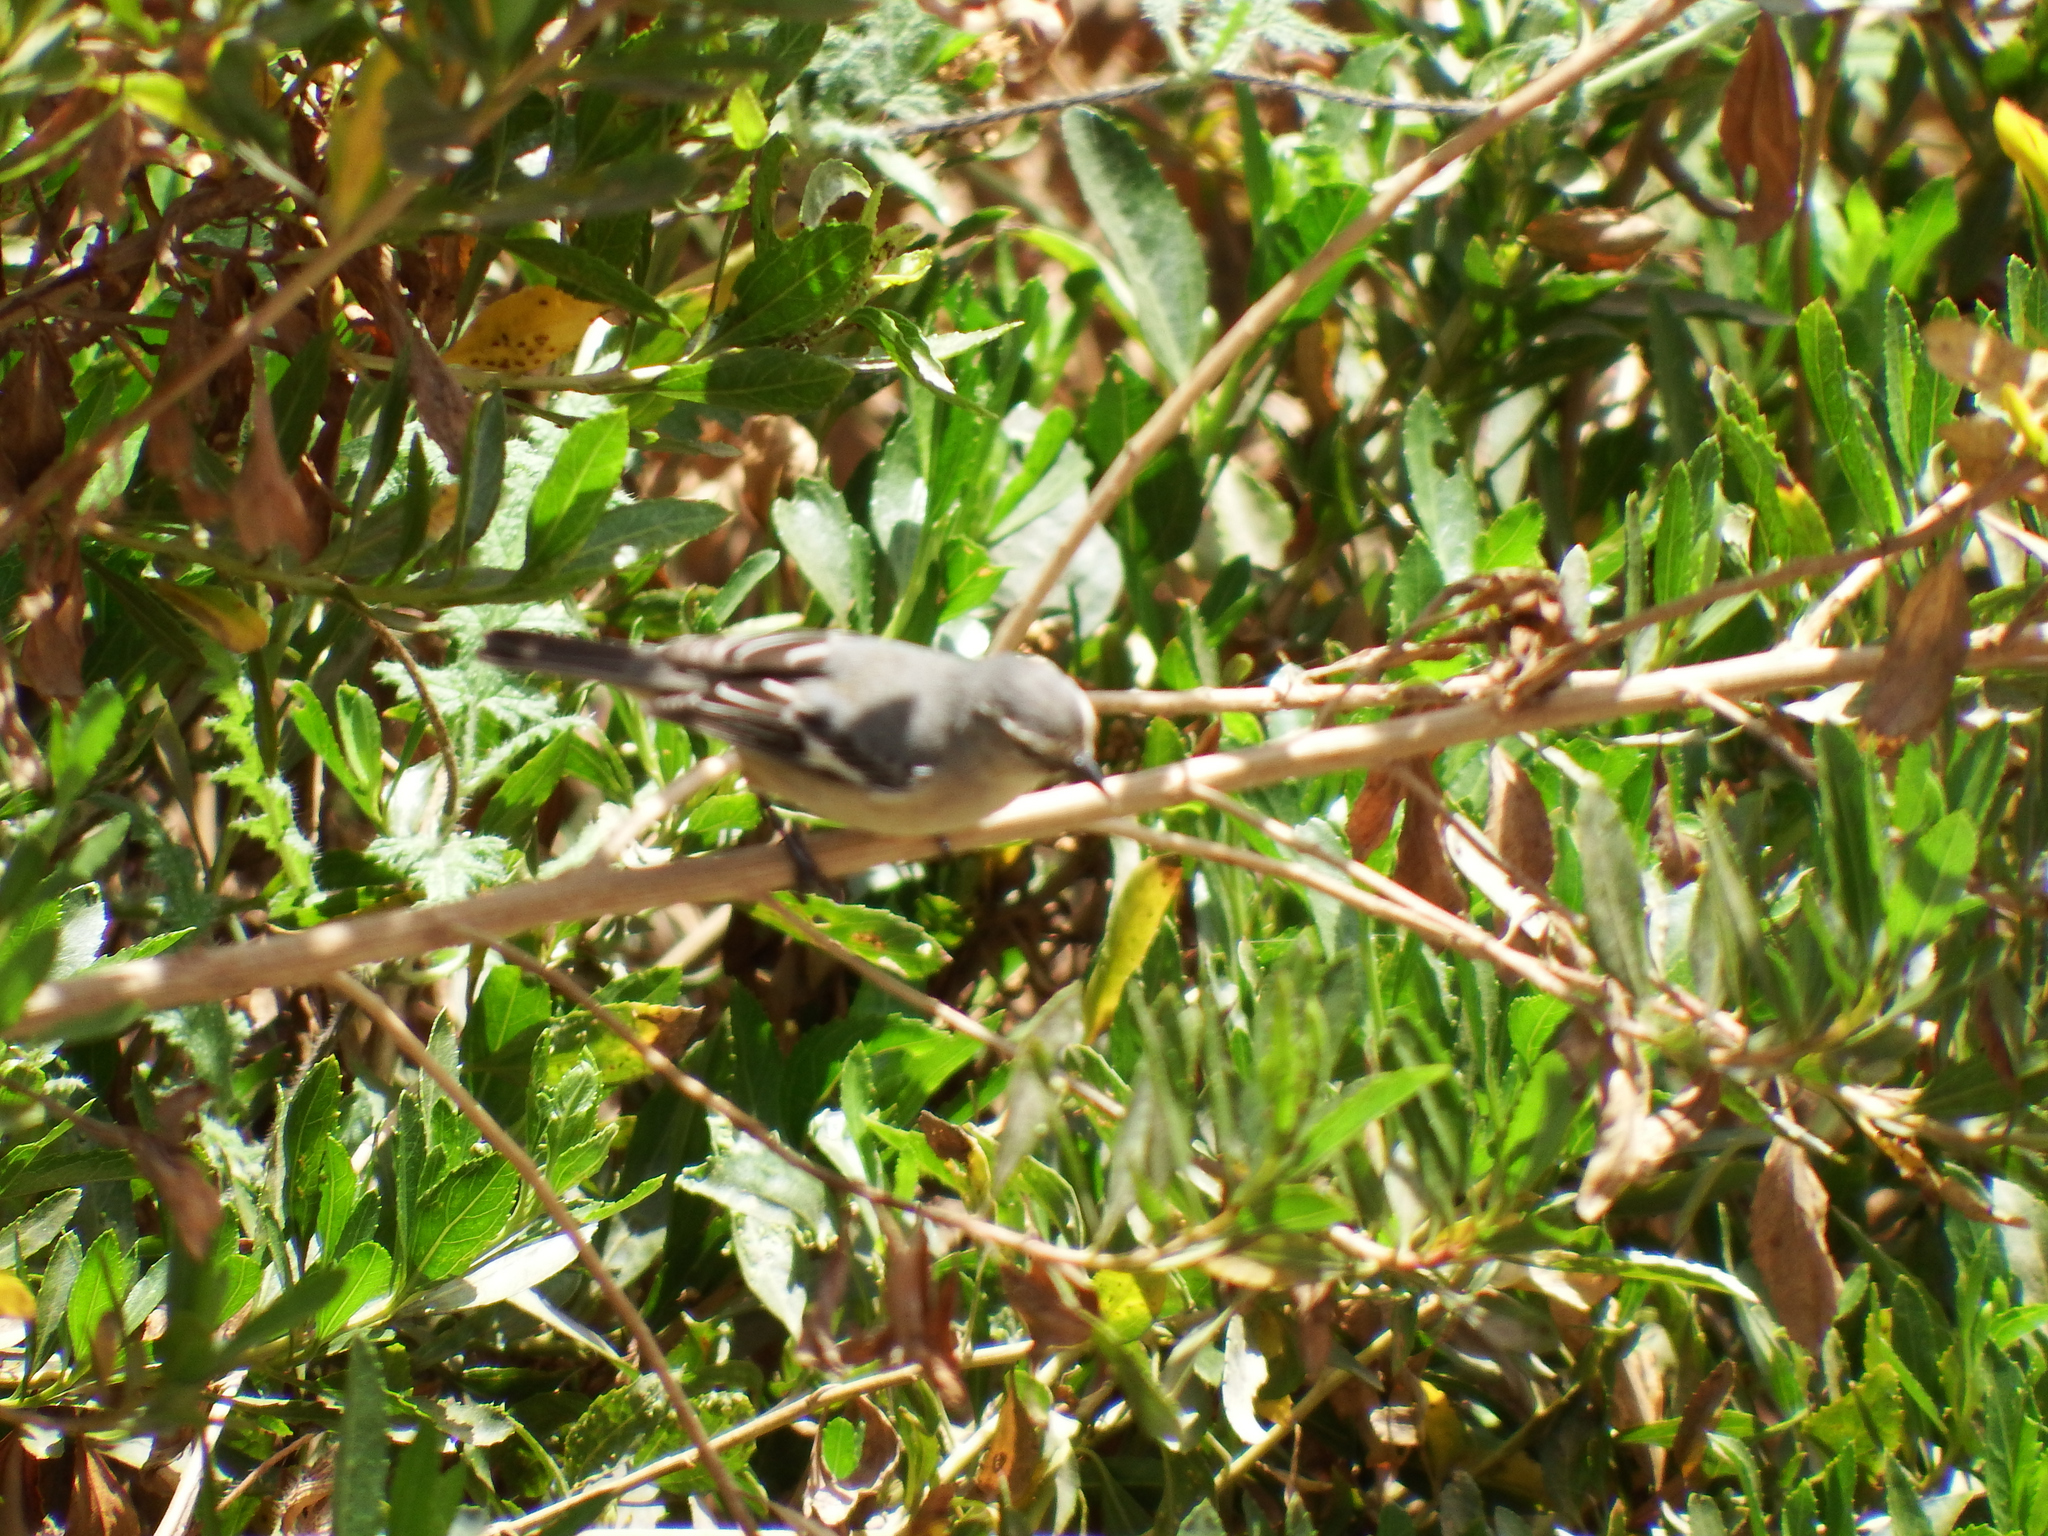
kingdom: Animalia
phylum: Chordata
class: Aves
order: Passeriformes
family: Thraupidae
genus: Conirostrum
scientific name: Conirostrum cinereum
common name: Cinereous conebill
